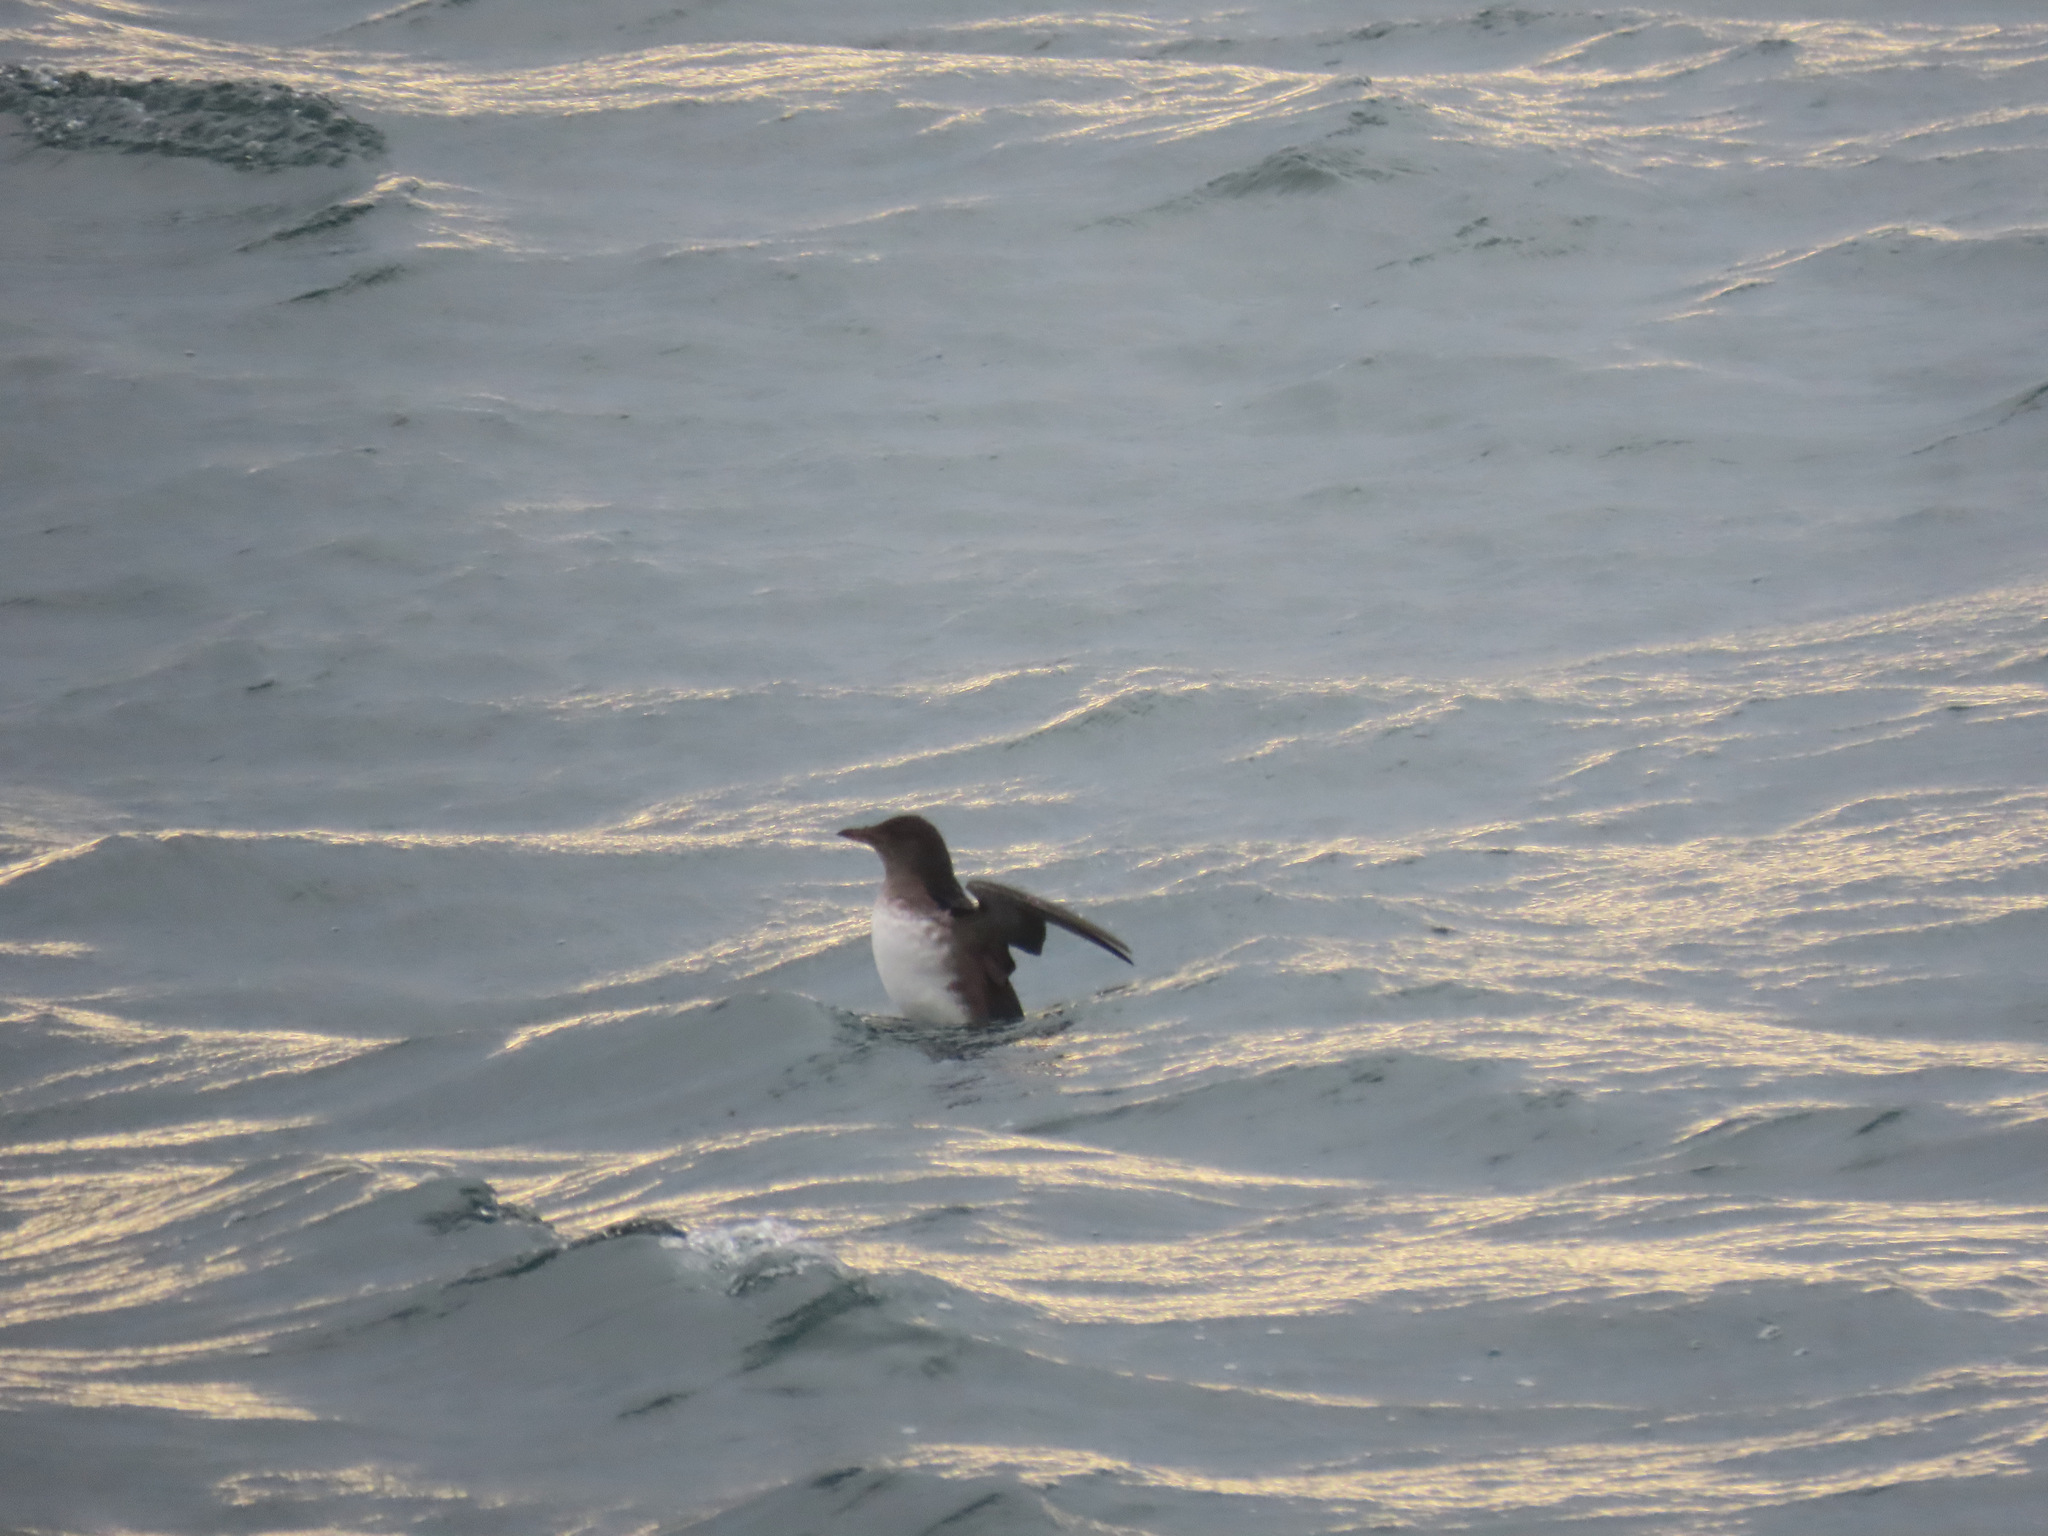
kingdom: Animalia
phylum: Chordata
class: Aves
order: Charadriiformes
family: Alcidae
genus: Cerorhinca
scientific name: Cerorhinca monocerata
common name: Rhinoceros auklet
